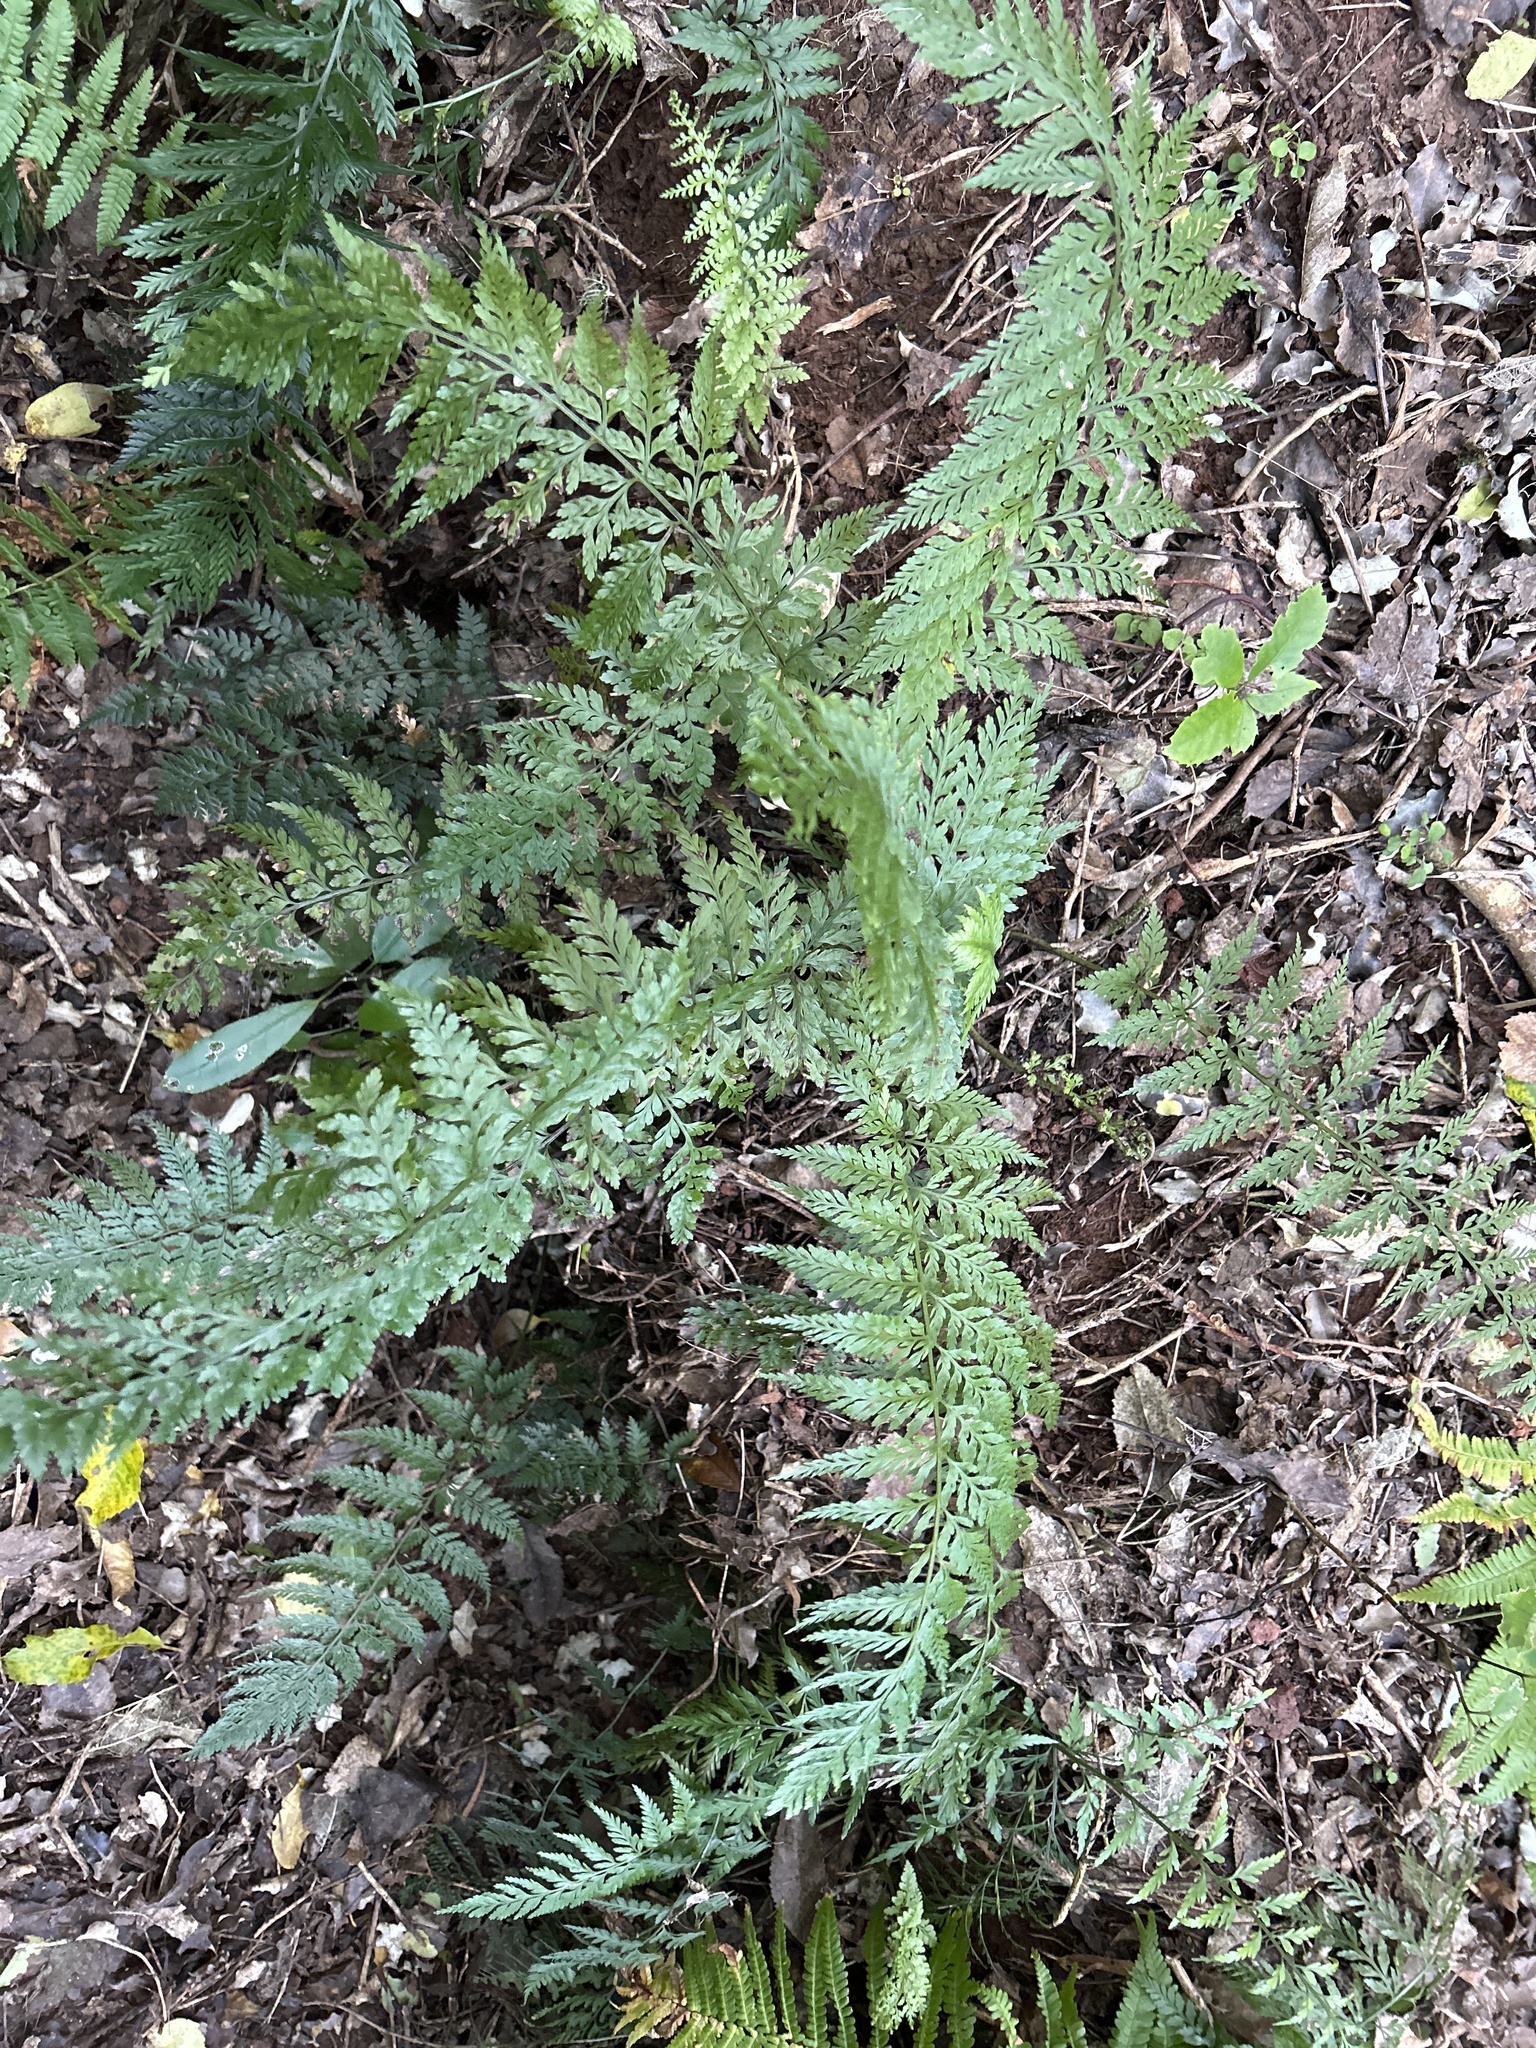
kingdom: Plantae
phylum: Tracheophyta
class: Polypodiopsida
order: Polypodiales
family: Aspleniaceae
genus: Asplenium
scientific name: Asplenium
